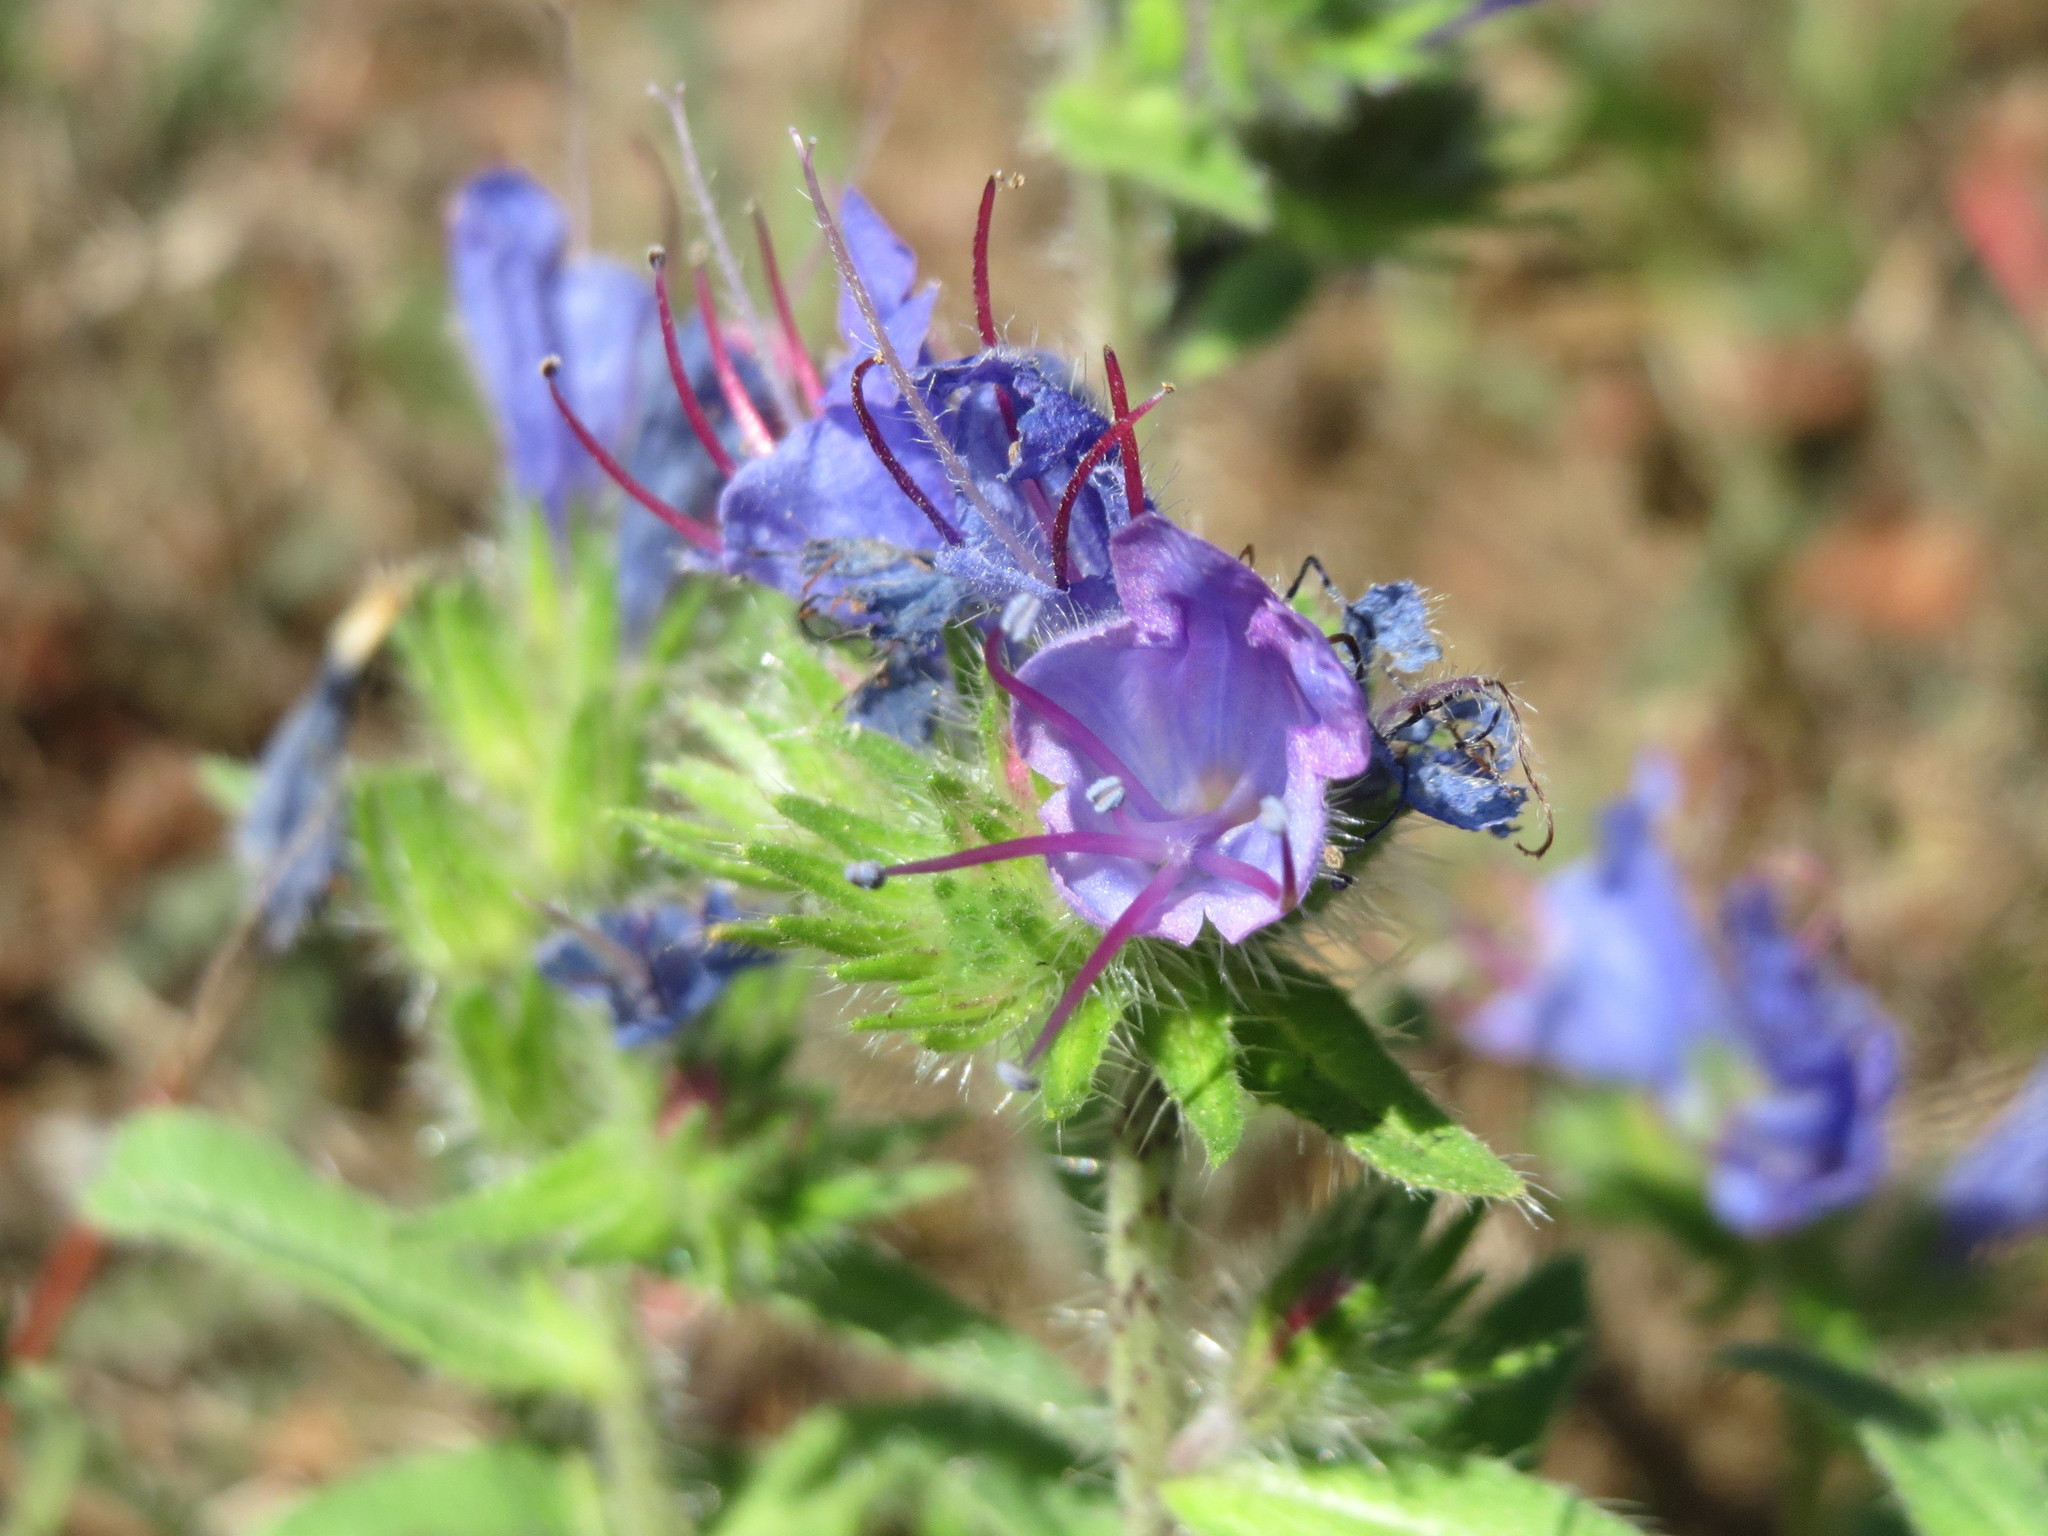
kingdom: Plantae
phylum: Tracheophyta
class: Magnoliopsida
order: Boraginales
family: Boraginaceae
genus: Echium
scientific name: Echium vulgare
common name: Common viper's bugloss
